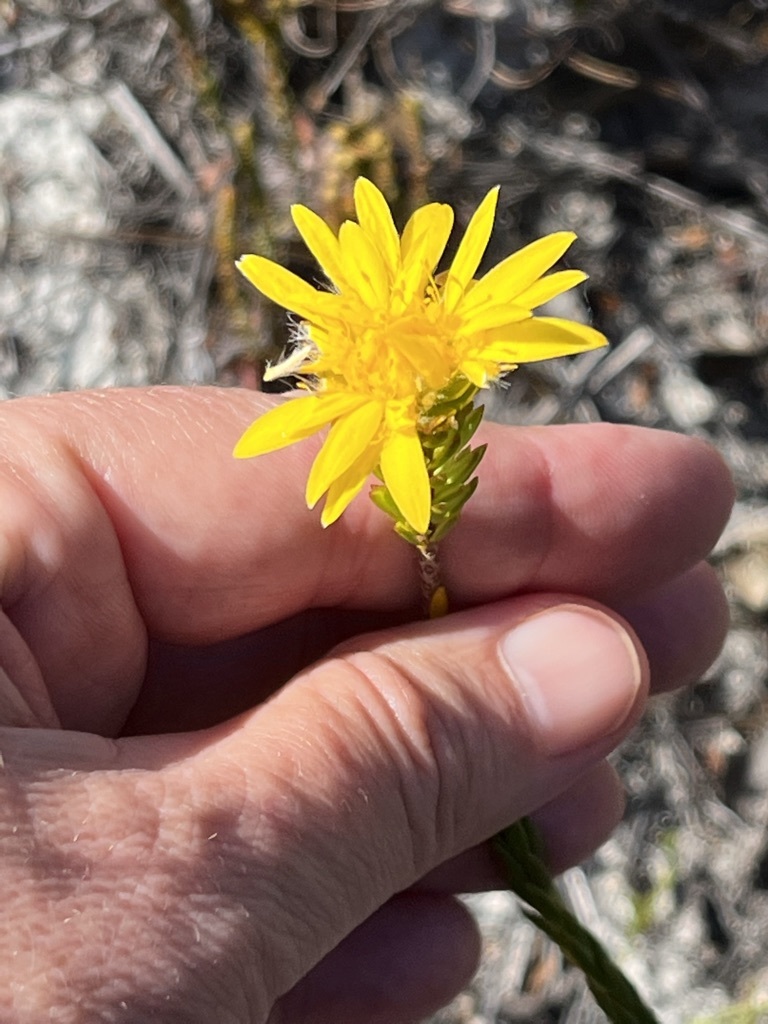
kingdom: Plantae
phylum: Tracheophyta
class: Magnoliopsida
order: Malvales
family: Thymelaeaceae
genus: Lachnaea
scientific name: Lachnaea aurea
